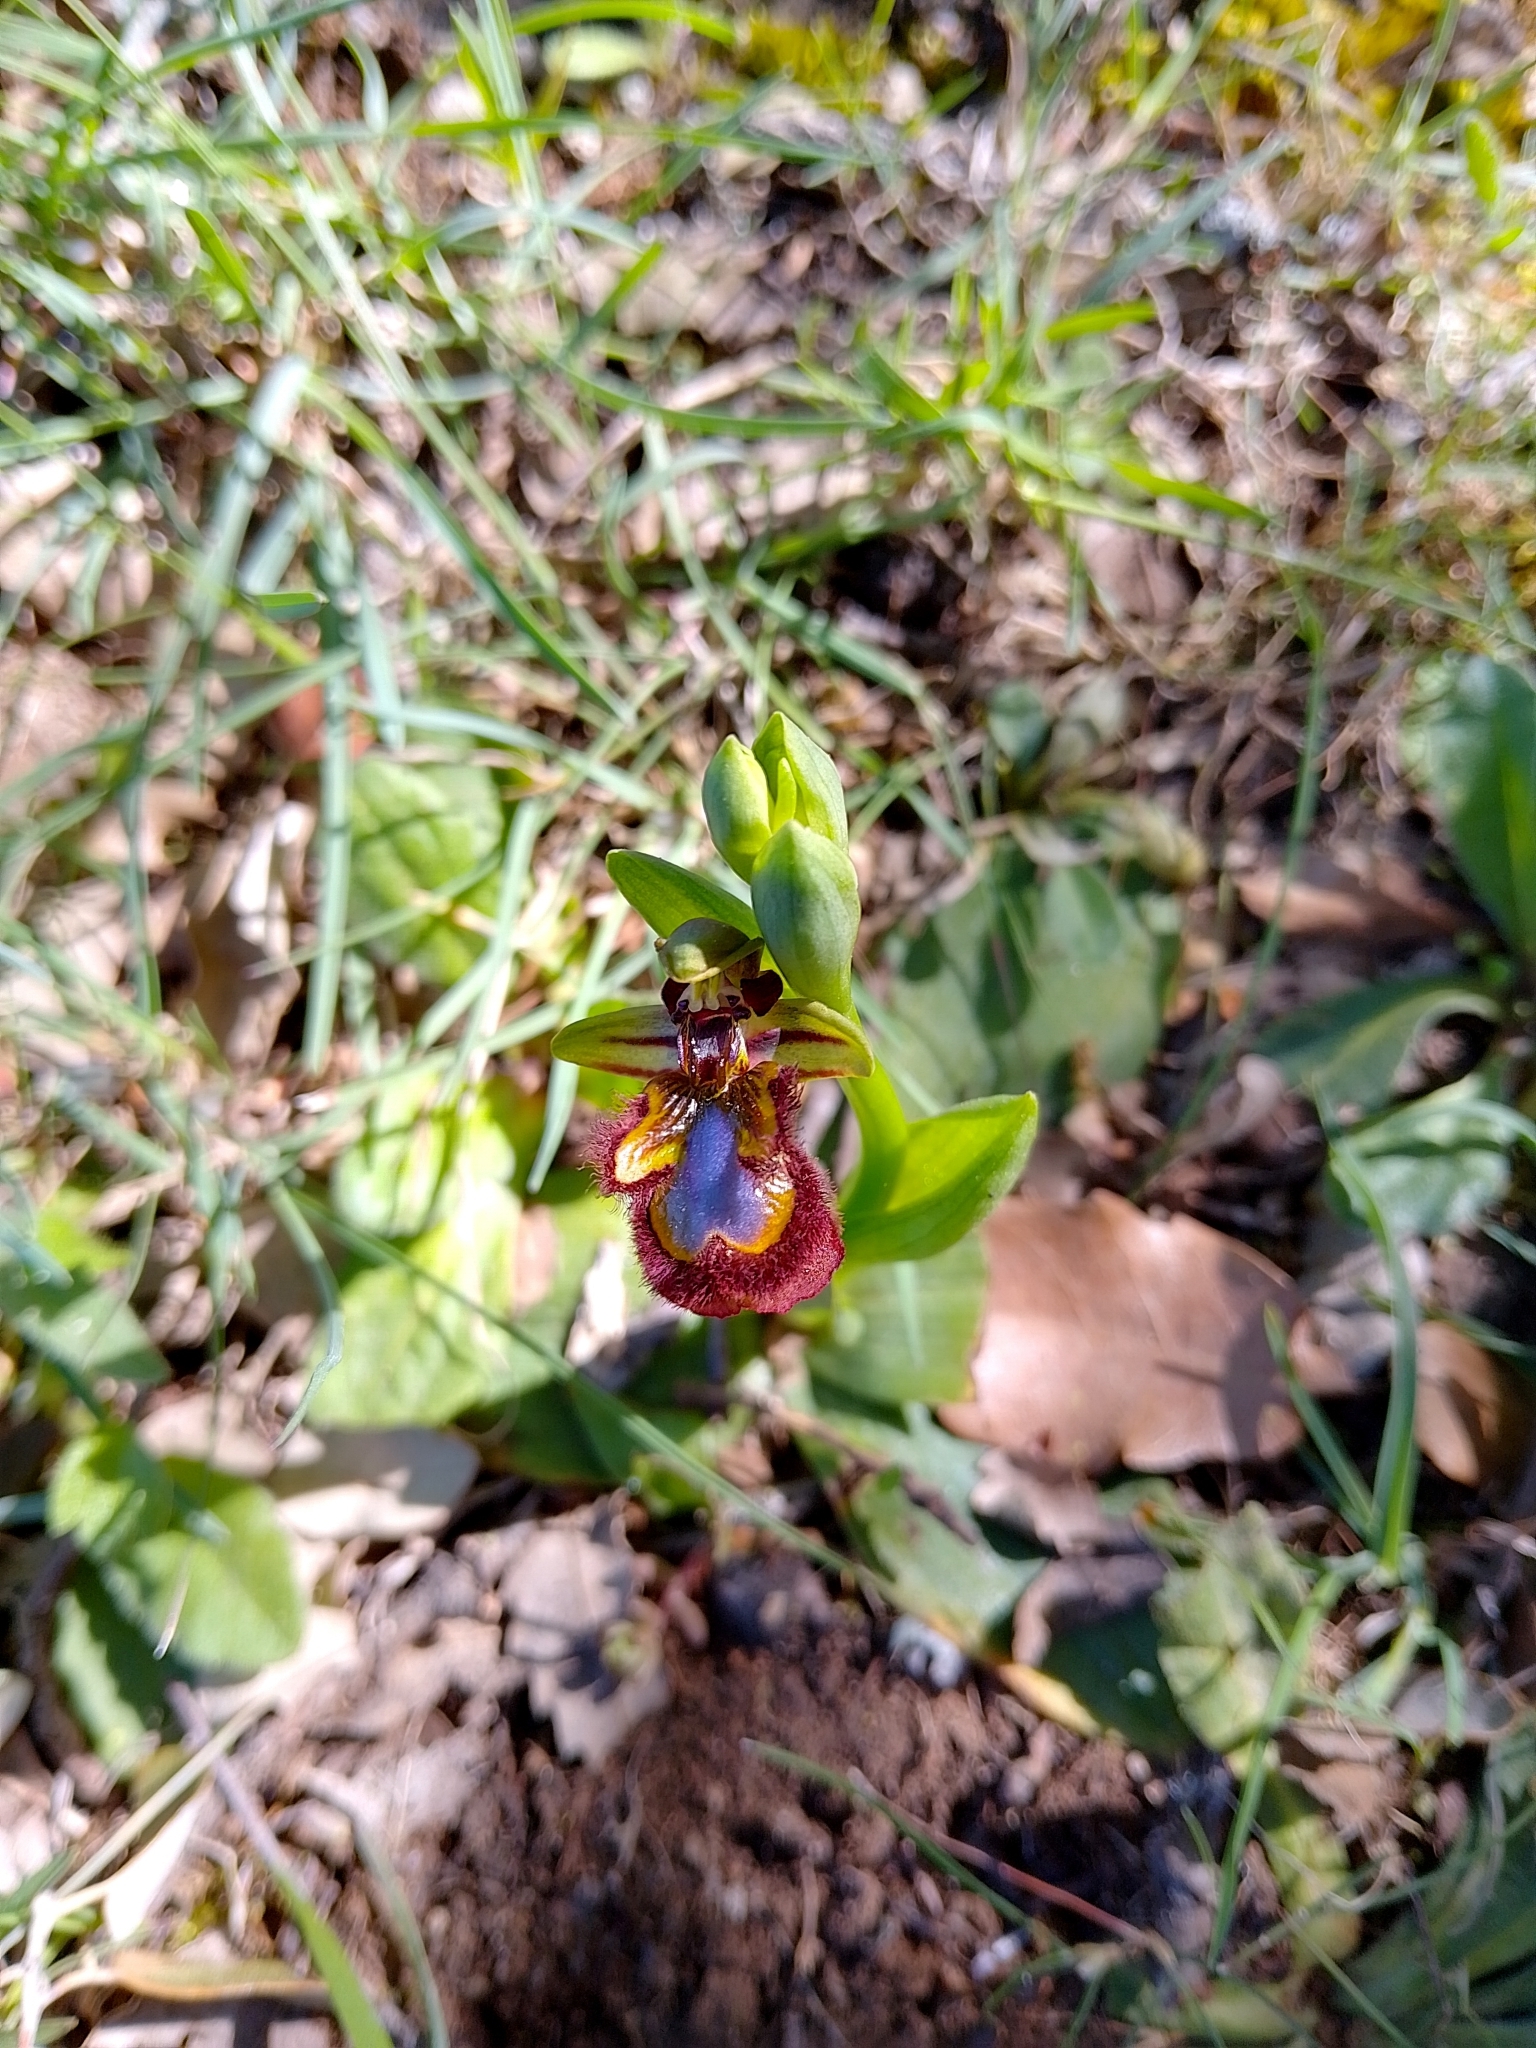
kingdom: Plantae
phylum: Tracheophyta
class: Liliopsida
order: Asparagales
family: Orchidaceae
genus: Ophrys
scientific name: Ophrys speculum
